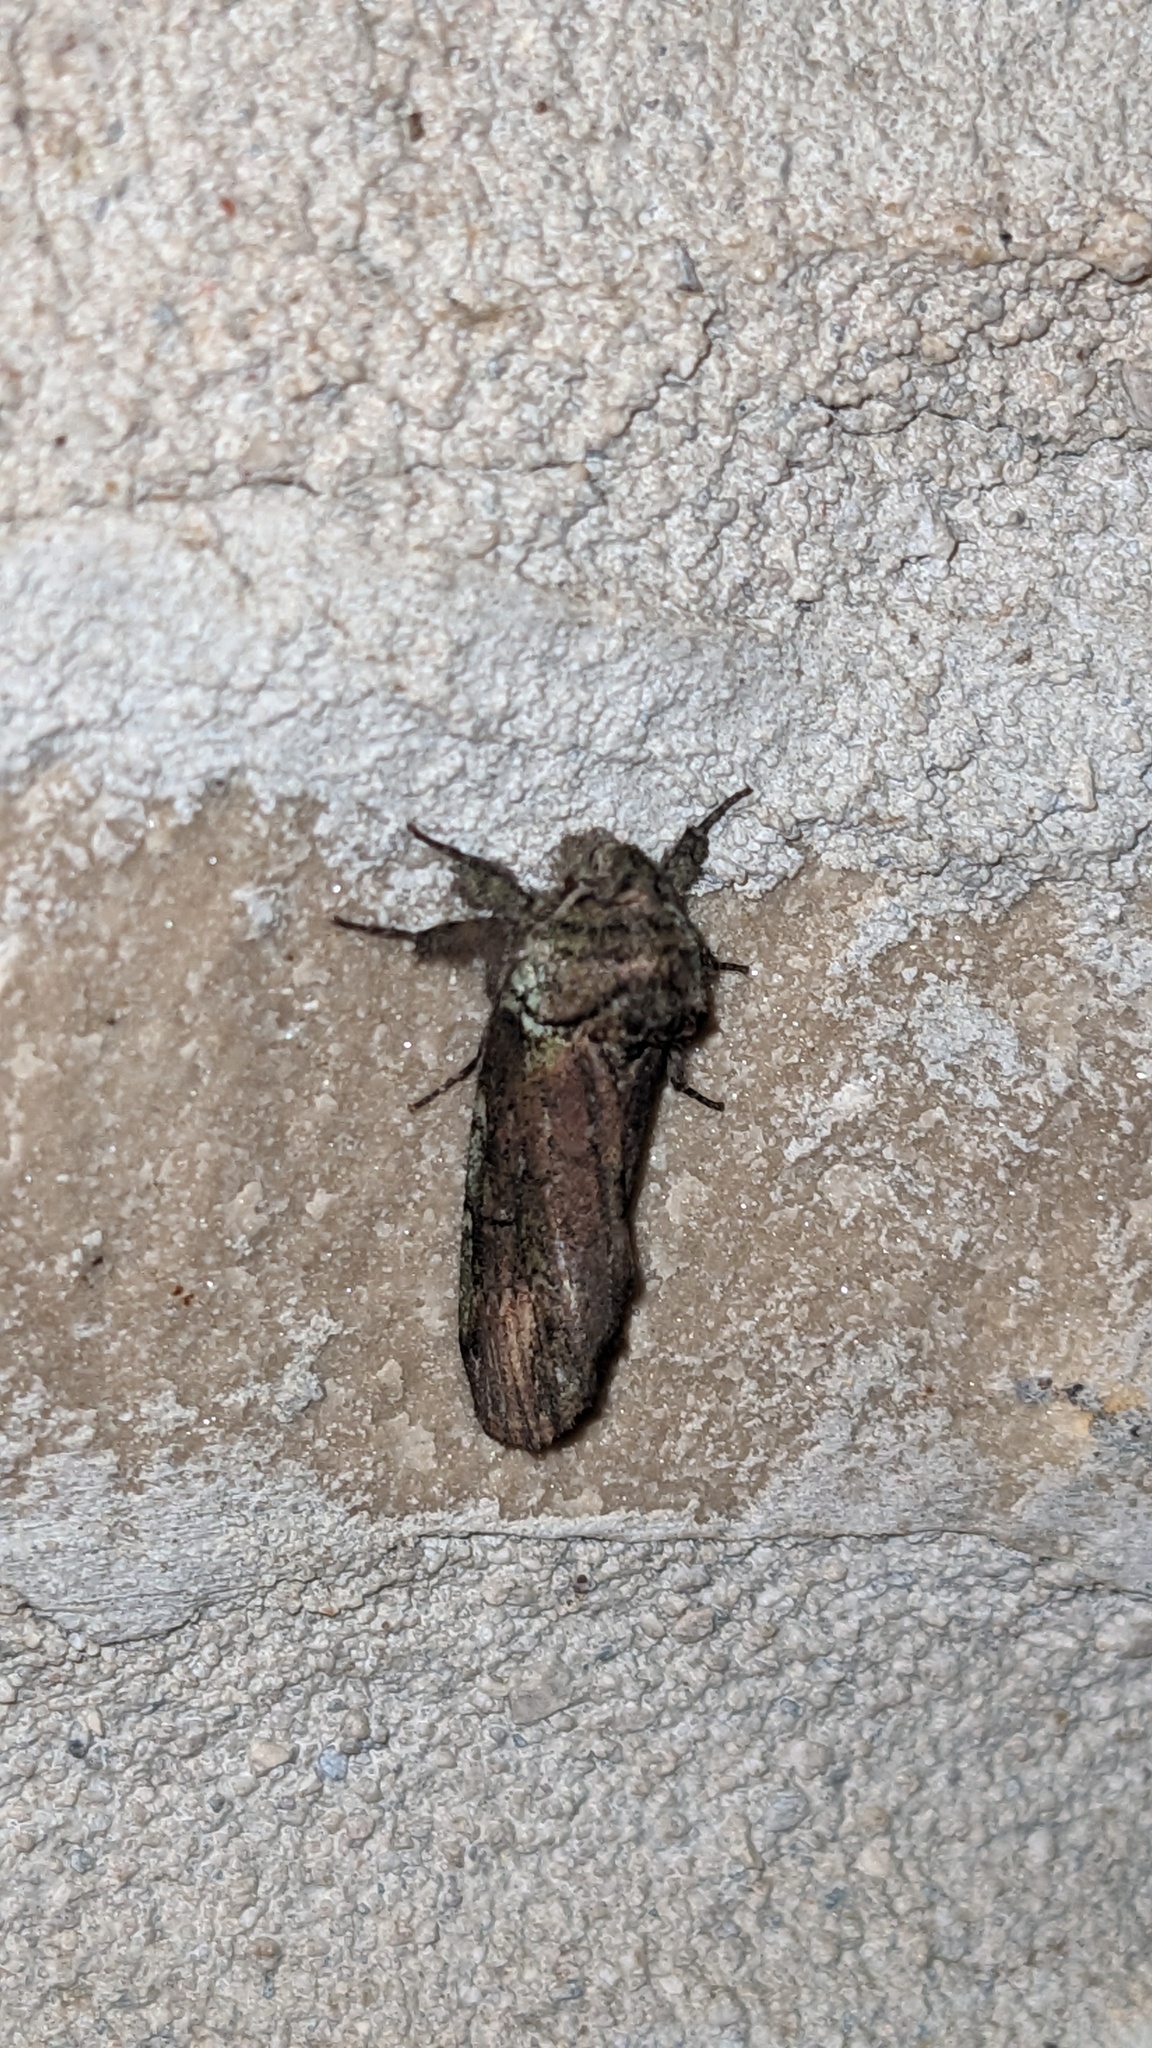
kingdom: Animalia
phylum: Arthropoda
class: Insecta
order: Lepidoptera
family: Notodontidae
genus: Schizura
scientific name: Schizura
